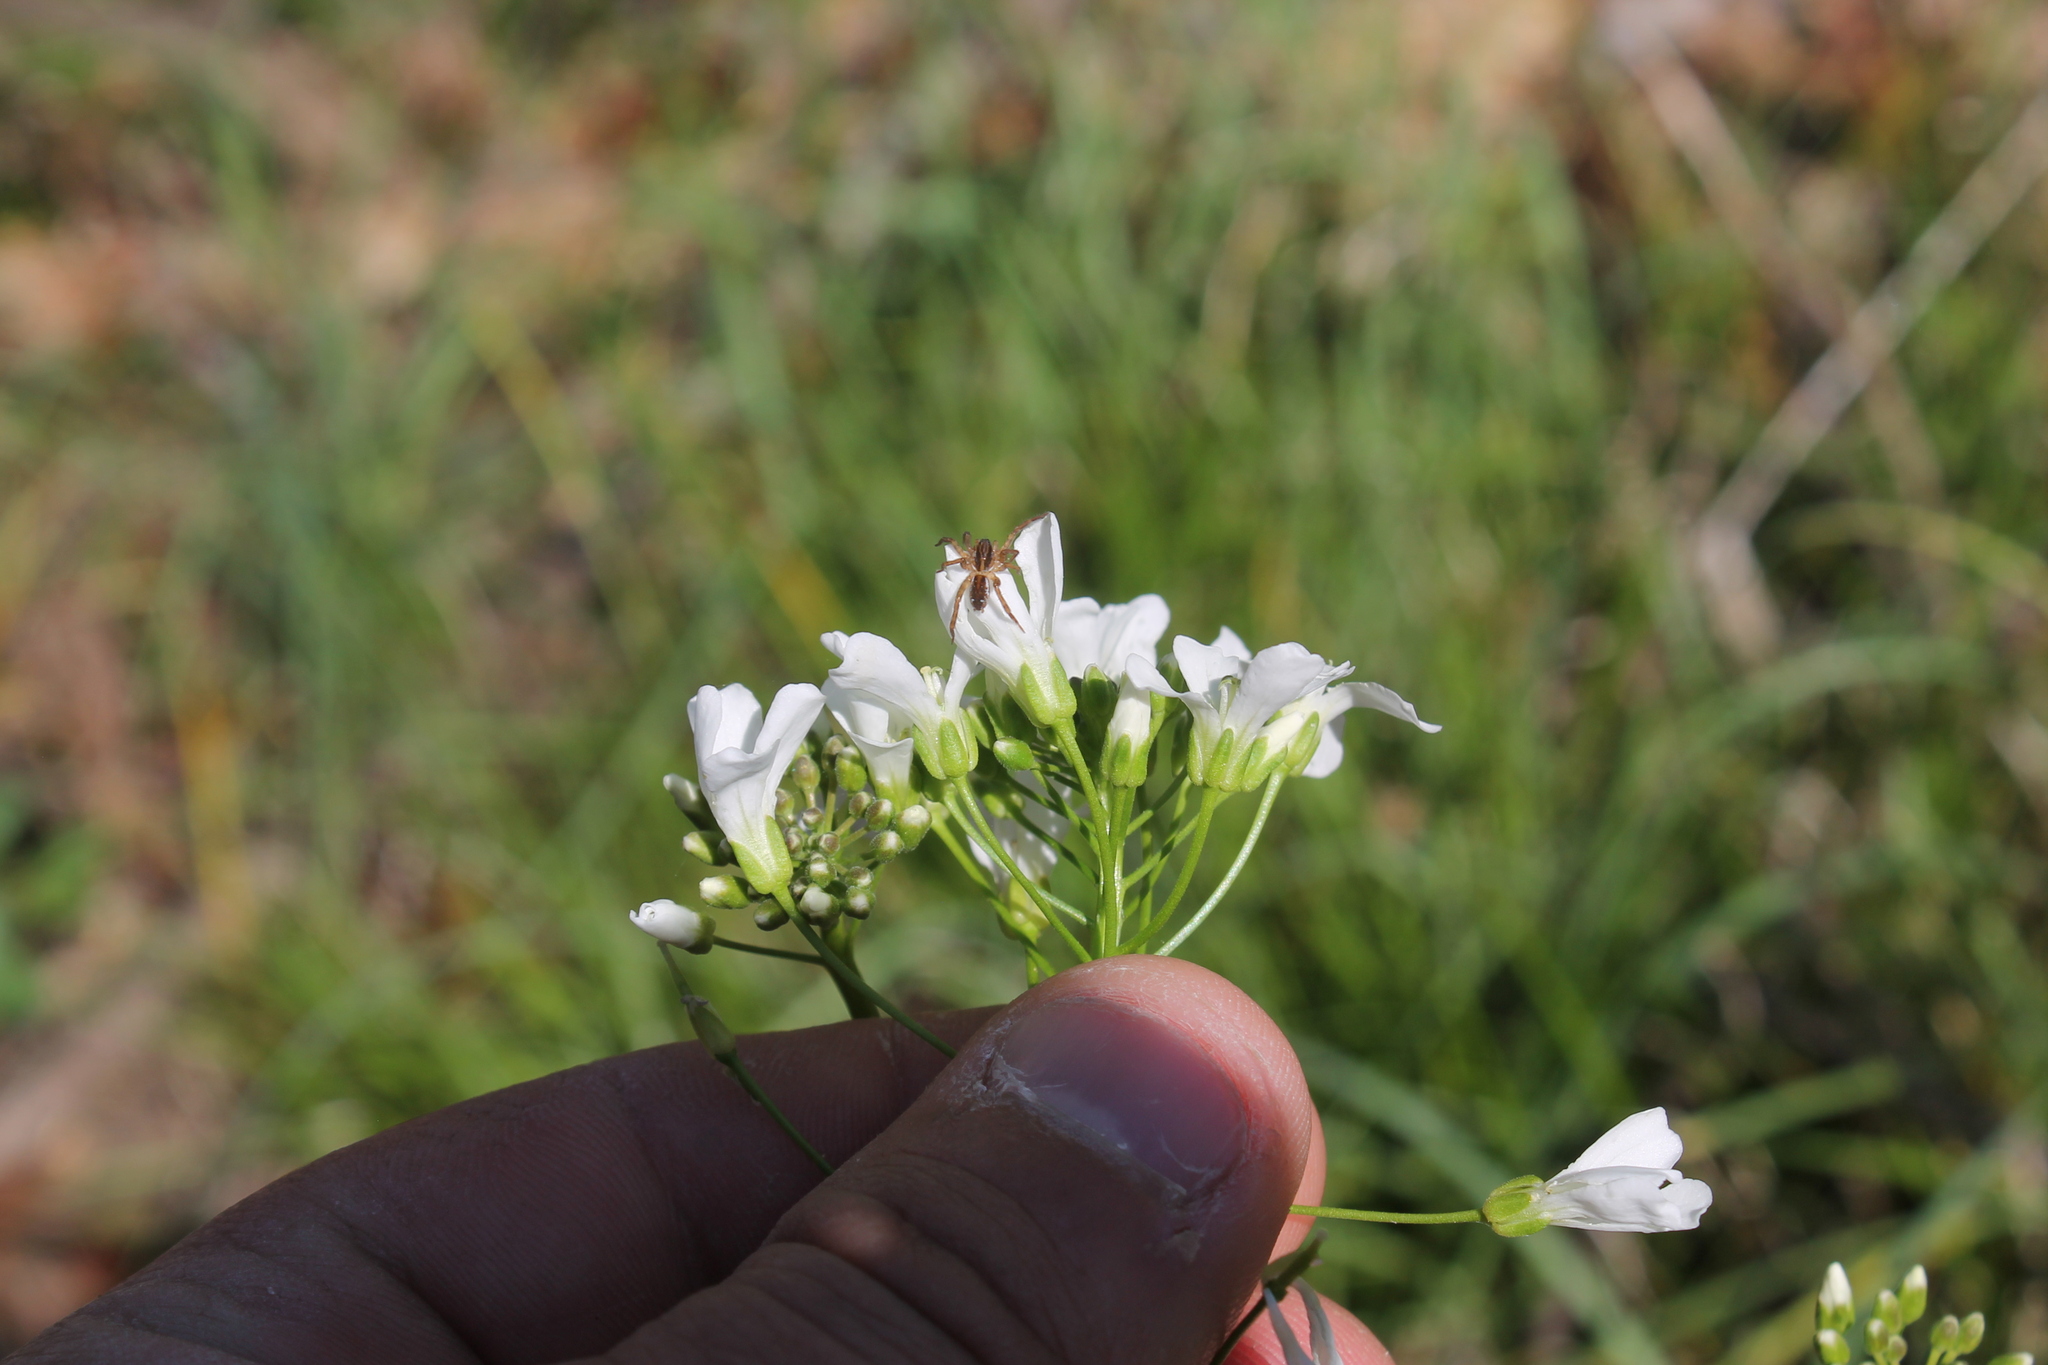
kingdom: Plantae
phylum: Tracheophyta
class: Magnoliopsida
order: Brassicales
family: Brassicaceae
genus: Cardamine
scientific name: Cardamine bulbosa
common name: Spring cress
